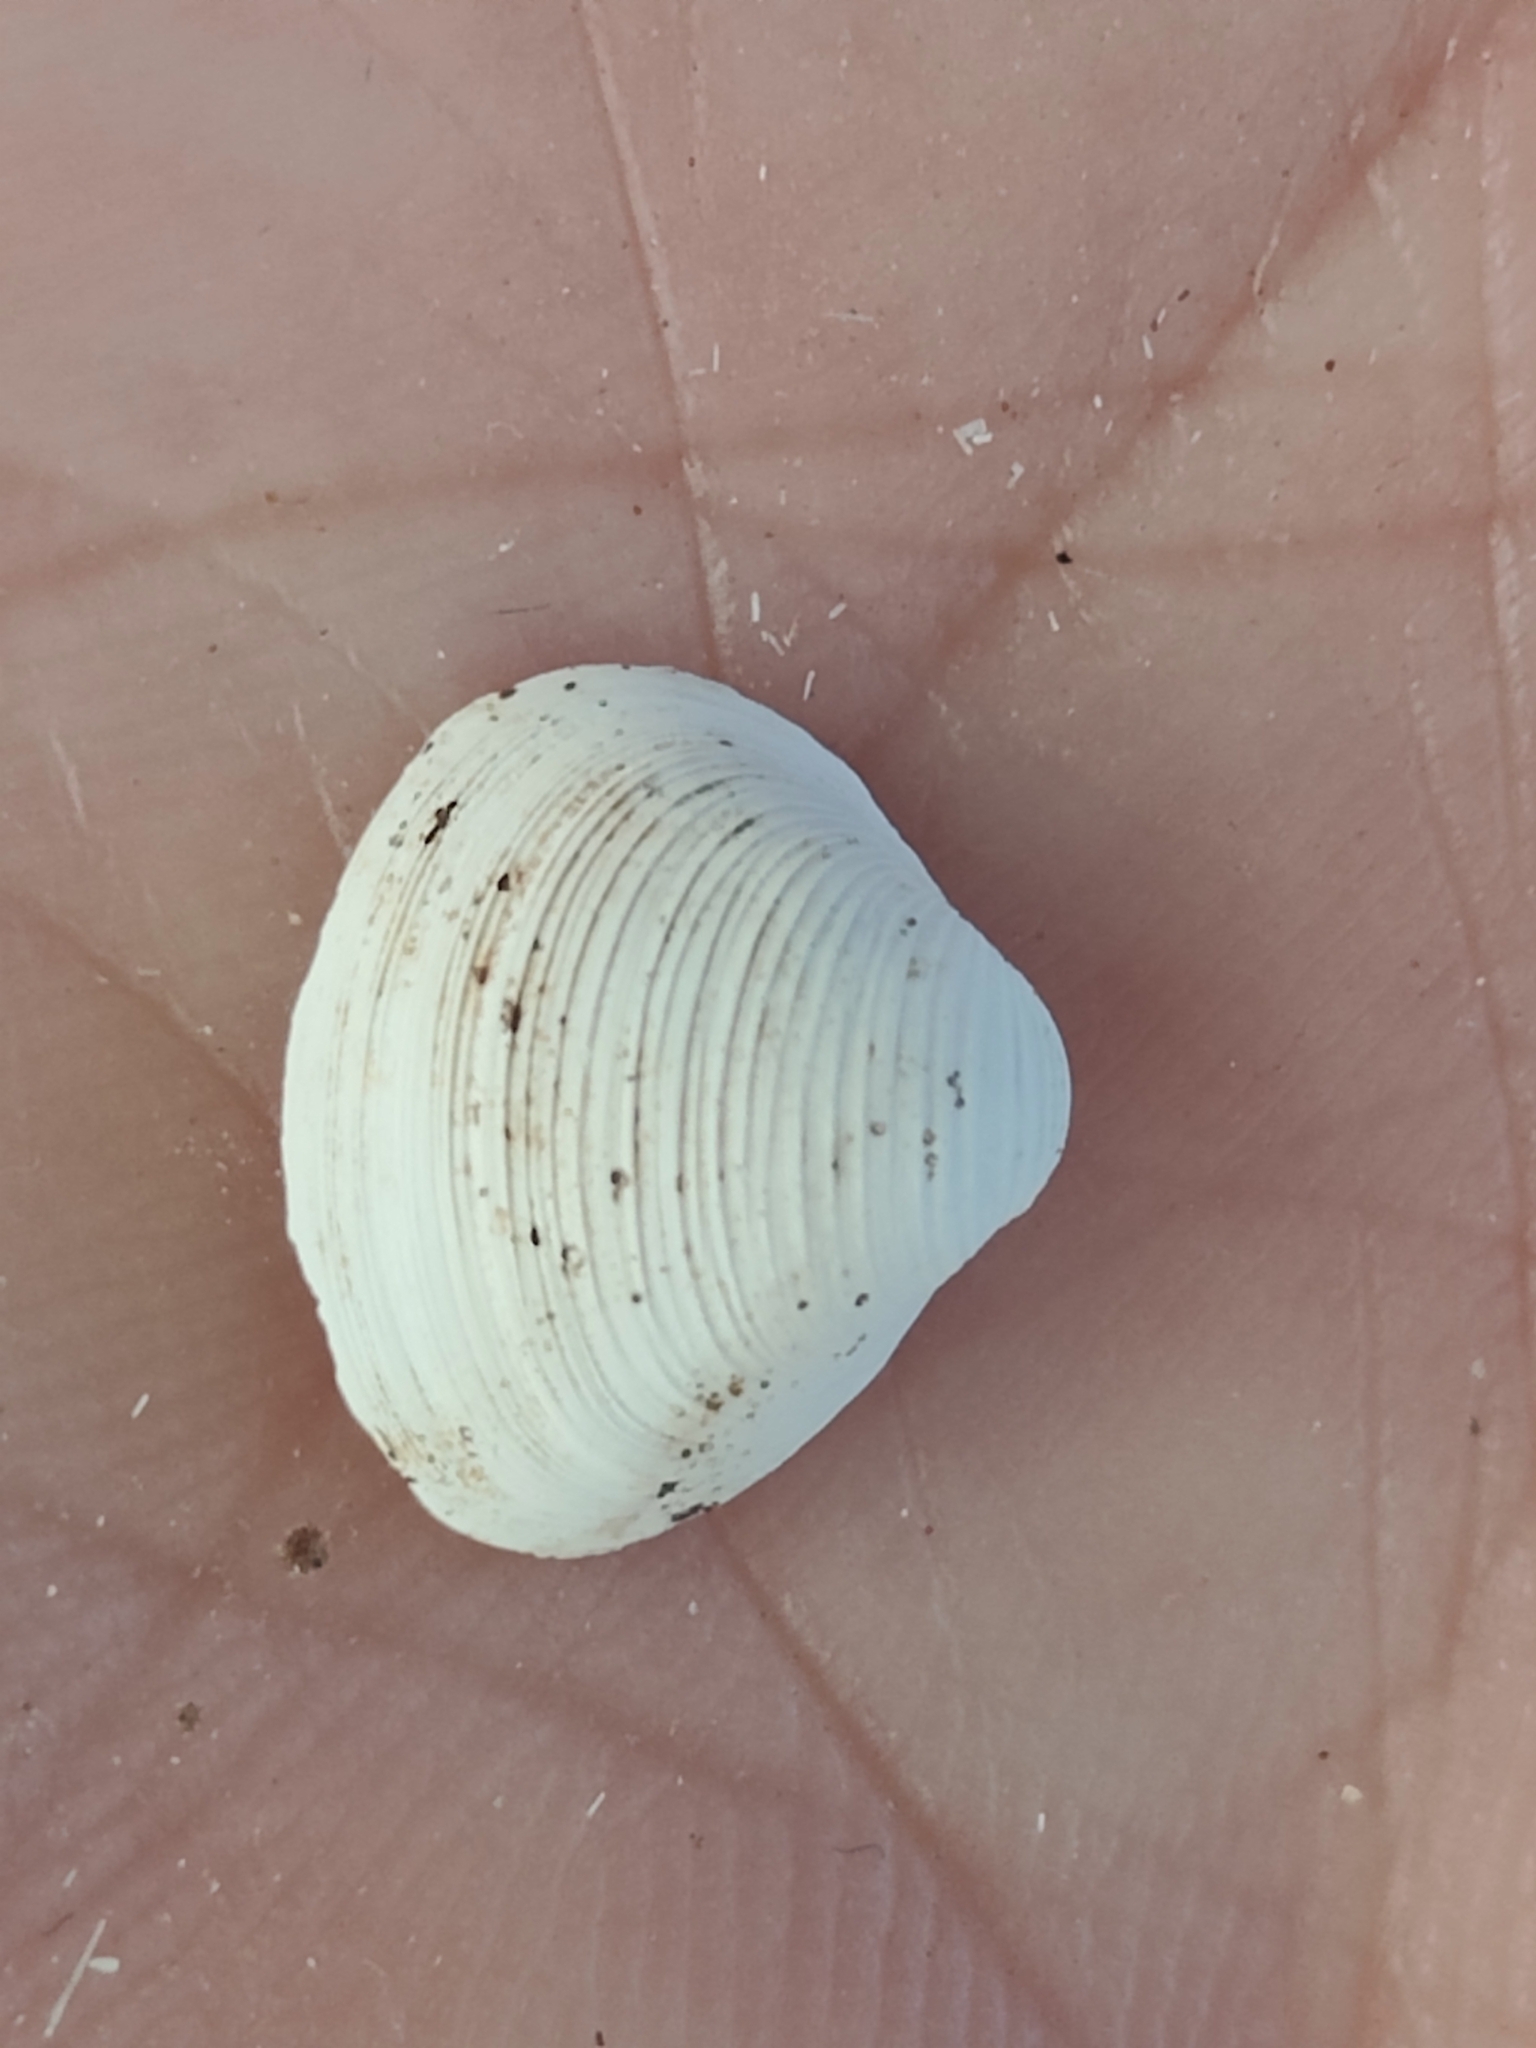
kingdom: Animalia
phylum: Mollusca
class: Bivalvia
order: Sphaeriida
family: Sphaeriidae
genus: Sphaerium
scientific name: Sphaerium striatinum
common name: Striated fingernailclam
